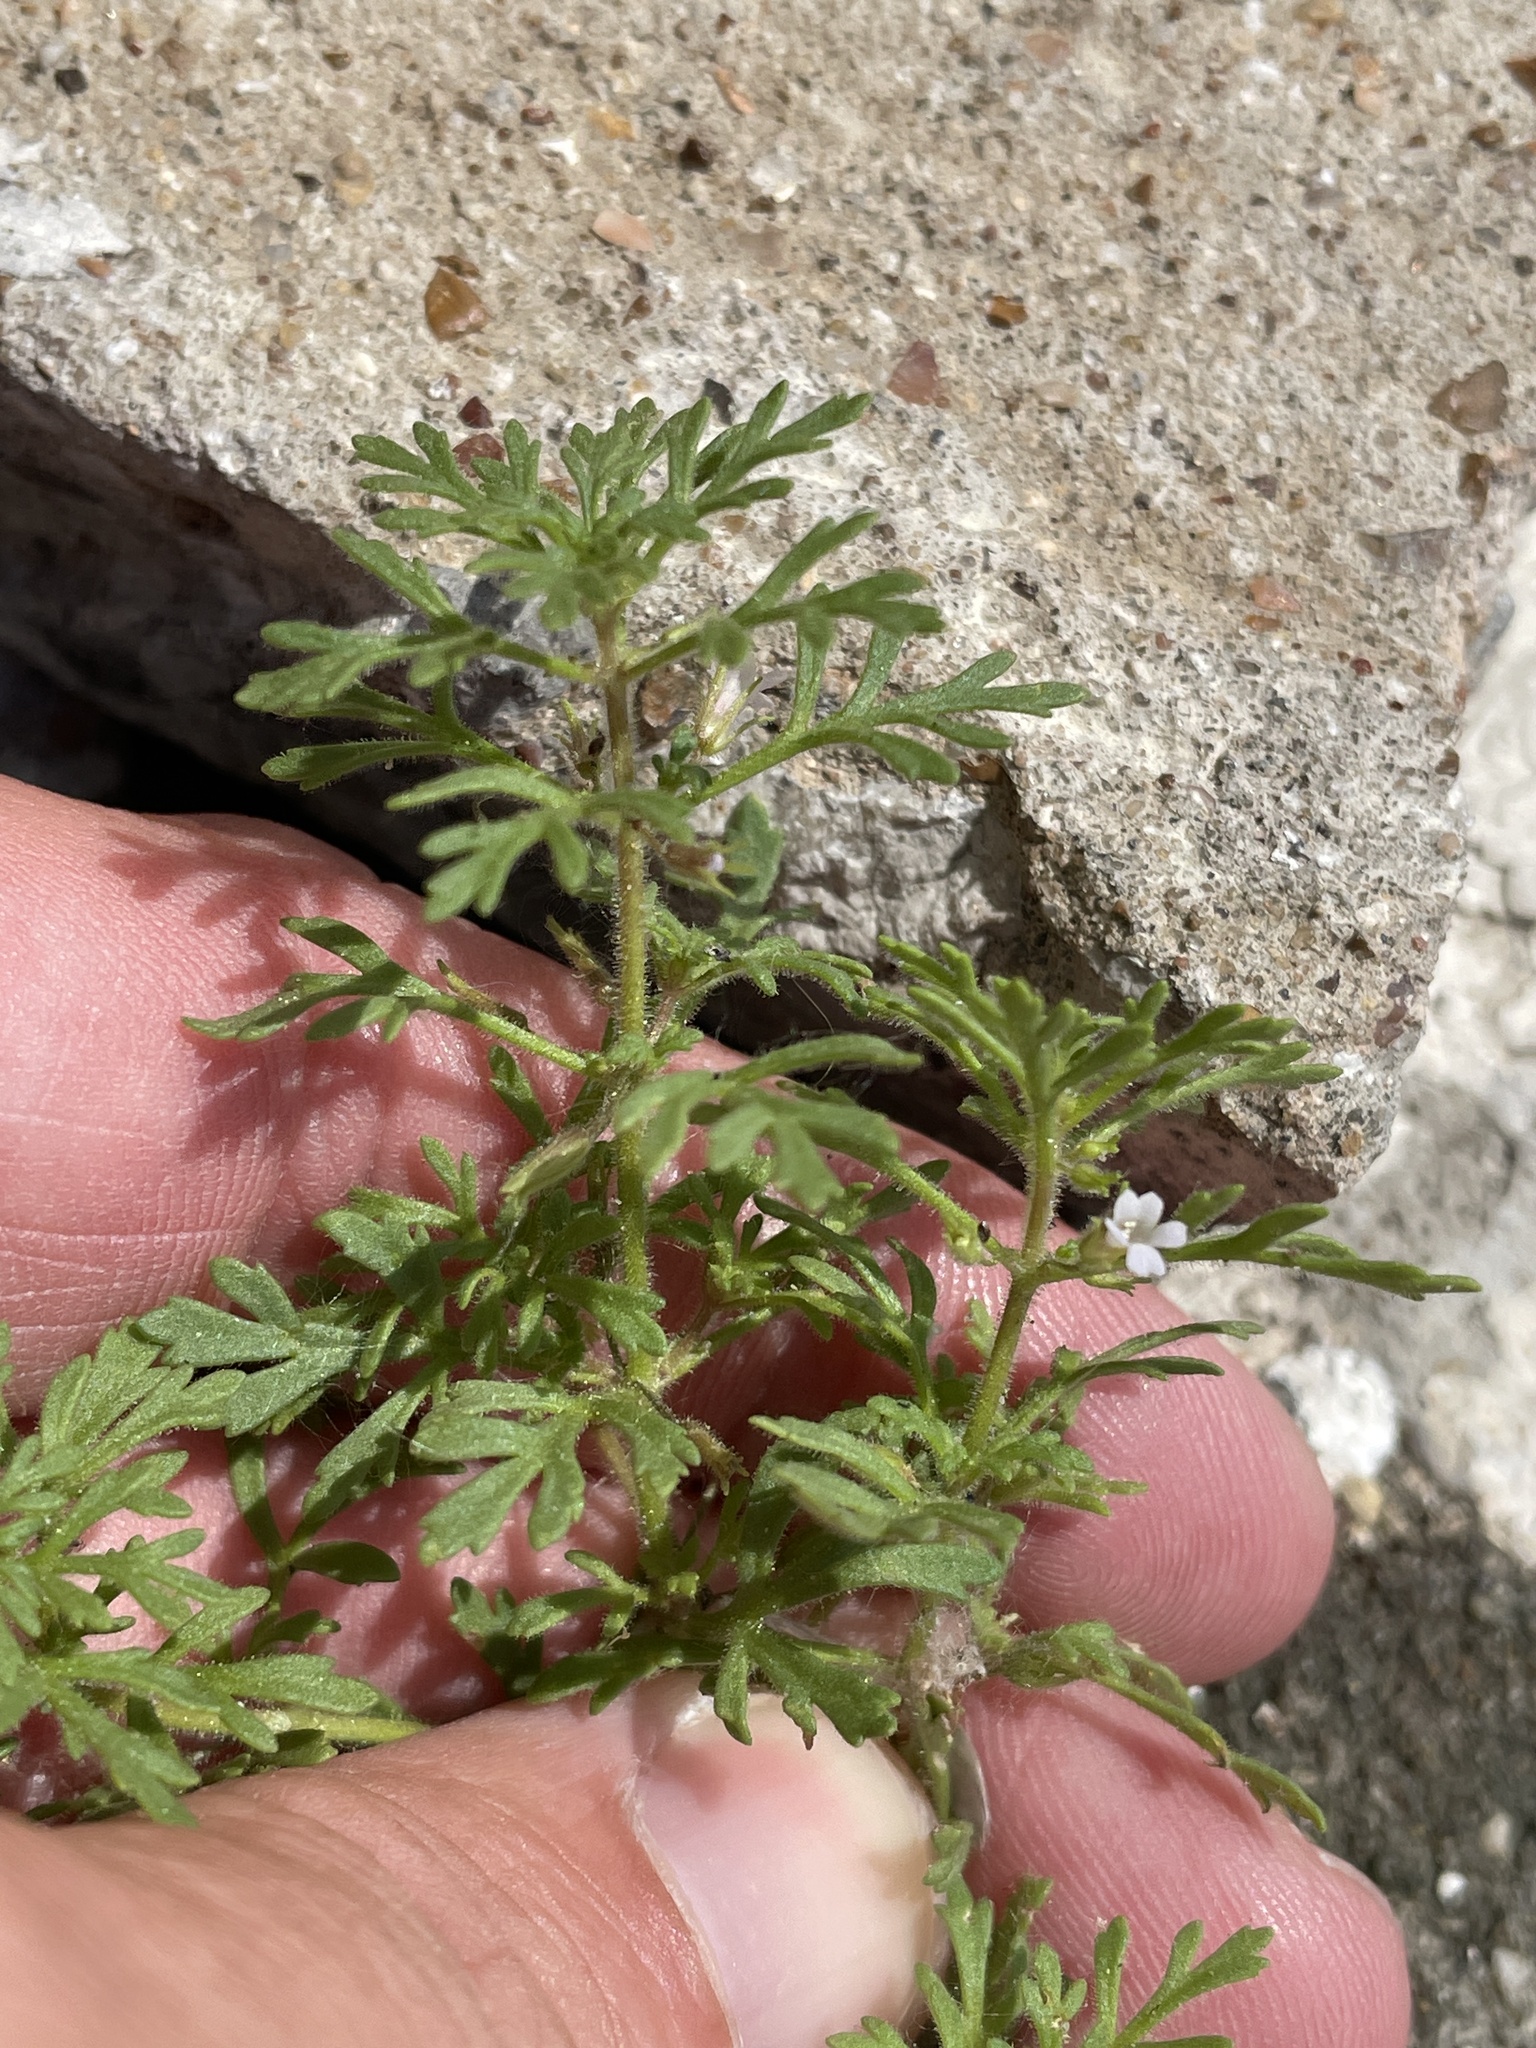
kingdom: Plantae
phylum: Tracheophyta
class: Magnoliopsida
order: Lamiales
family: Plantaginaceae
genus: Leucospora
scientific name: Leucospora multifida
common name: Narrow-leaf paleseed
